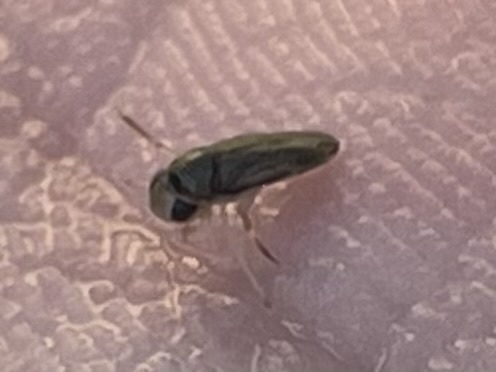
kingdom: Animalia
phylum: Arthropoda
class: Insecta
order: Hemiptera
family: Corixidae
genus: Trichocorixa
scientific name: Trichocorixa
